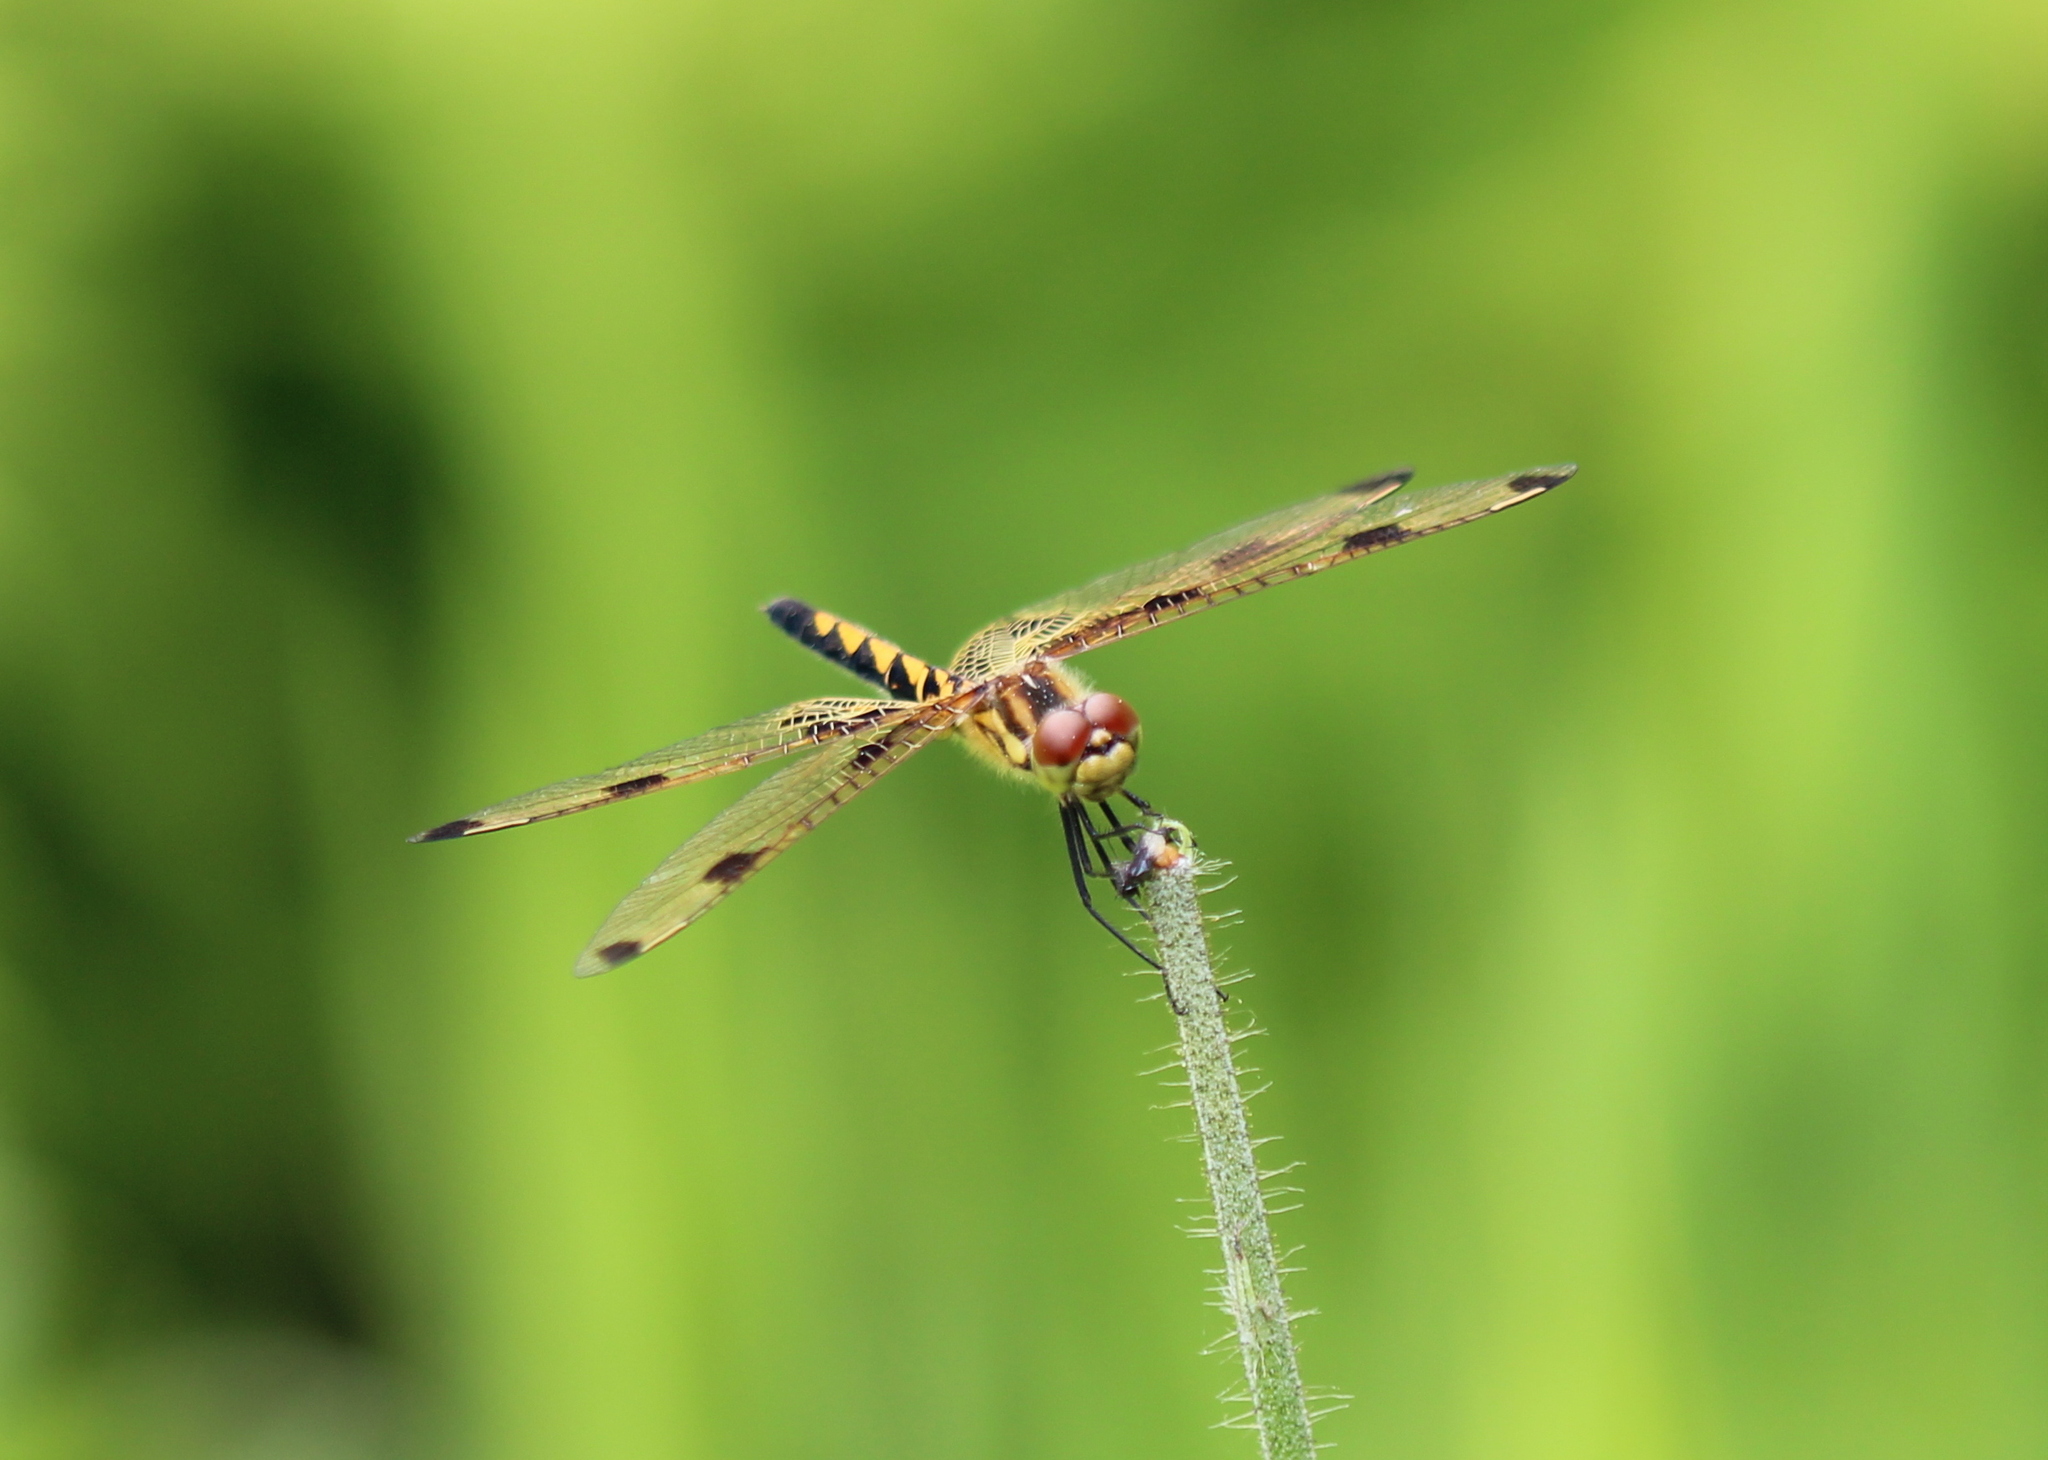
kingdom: Animalia
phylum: Arthropoda
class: Insecta
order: Odonata
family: Libellulidae
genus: Celithemis
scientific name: Celithemis elisa
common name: Calico pennant
